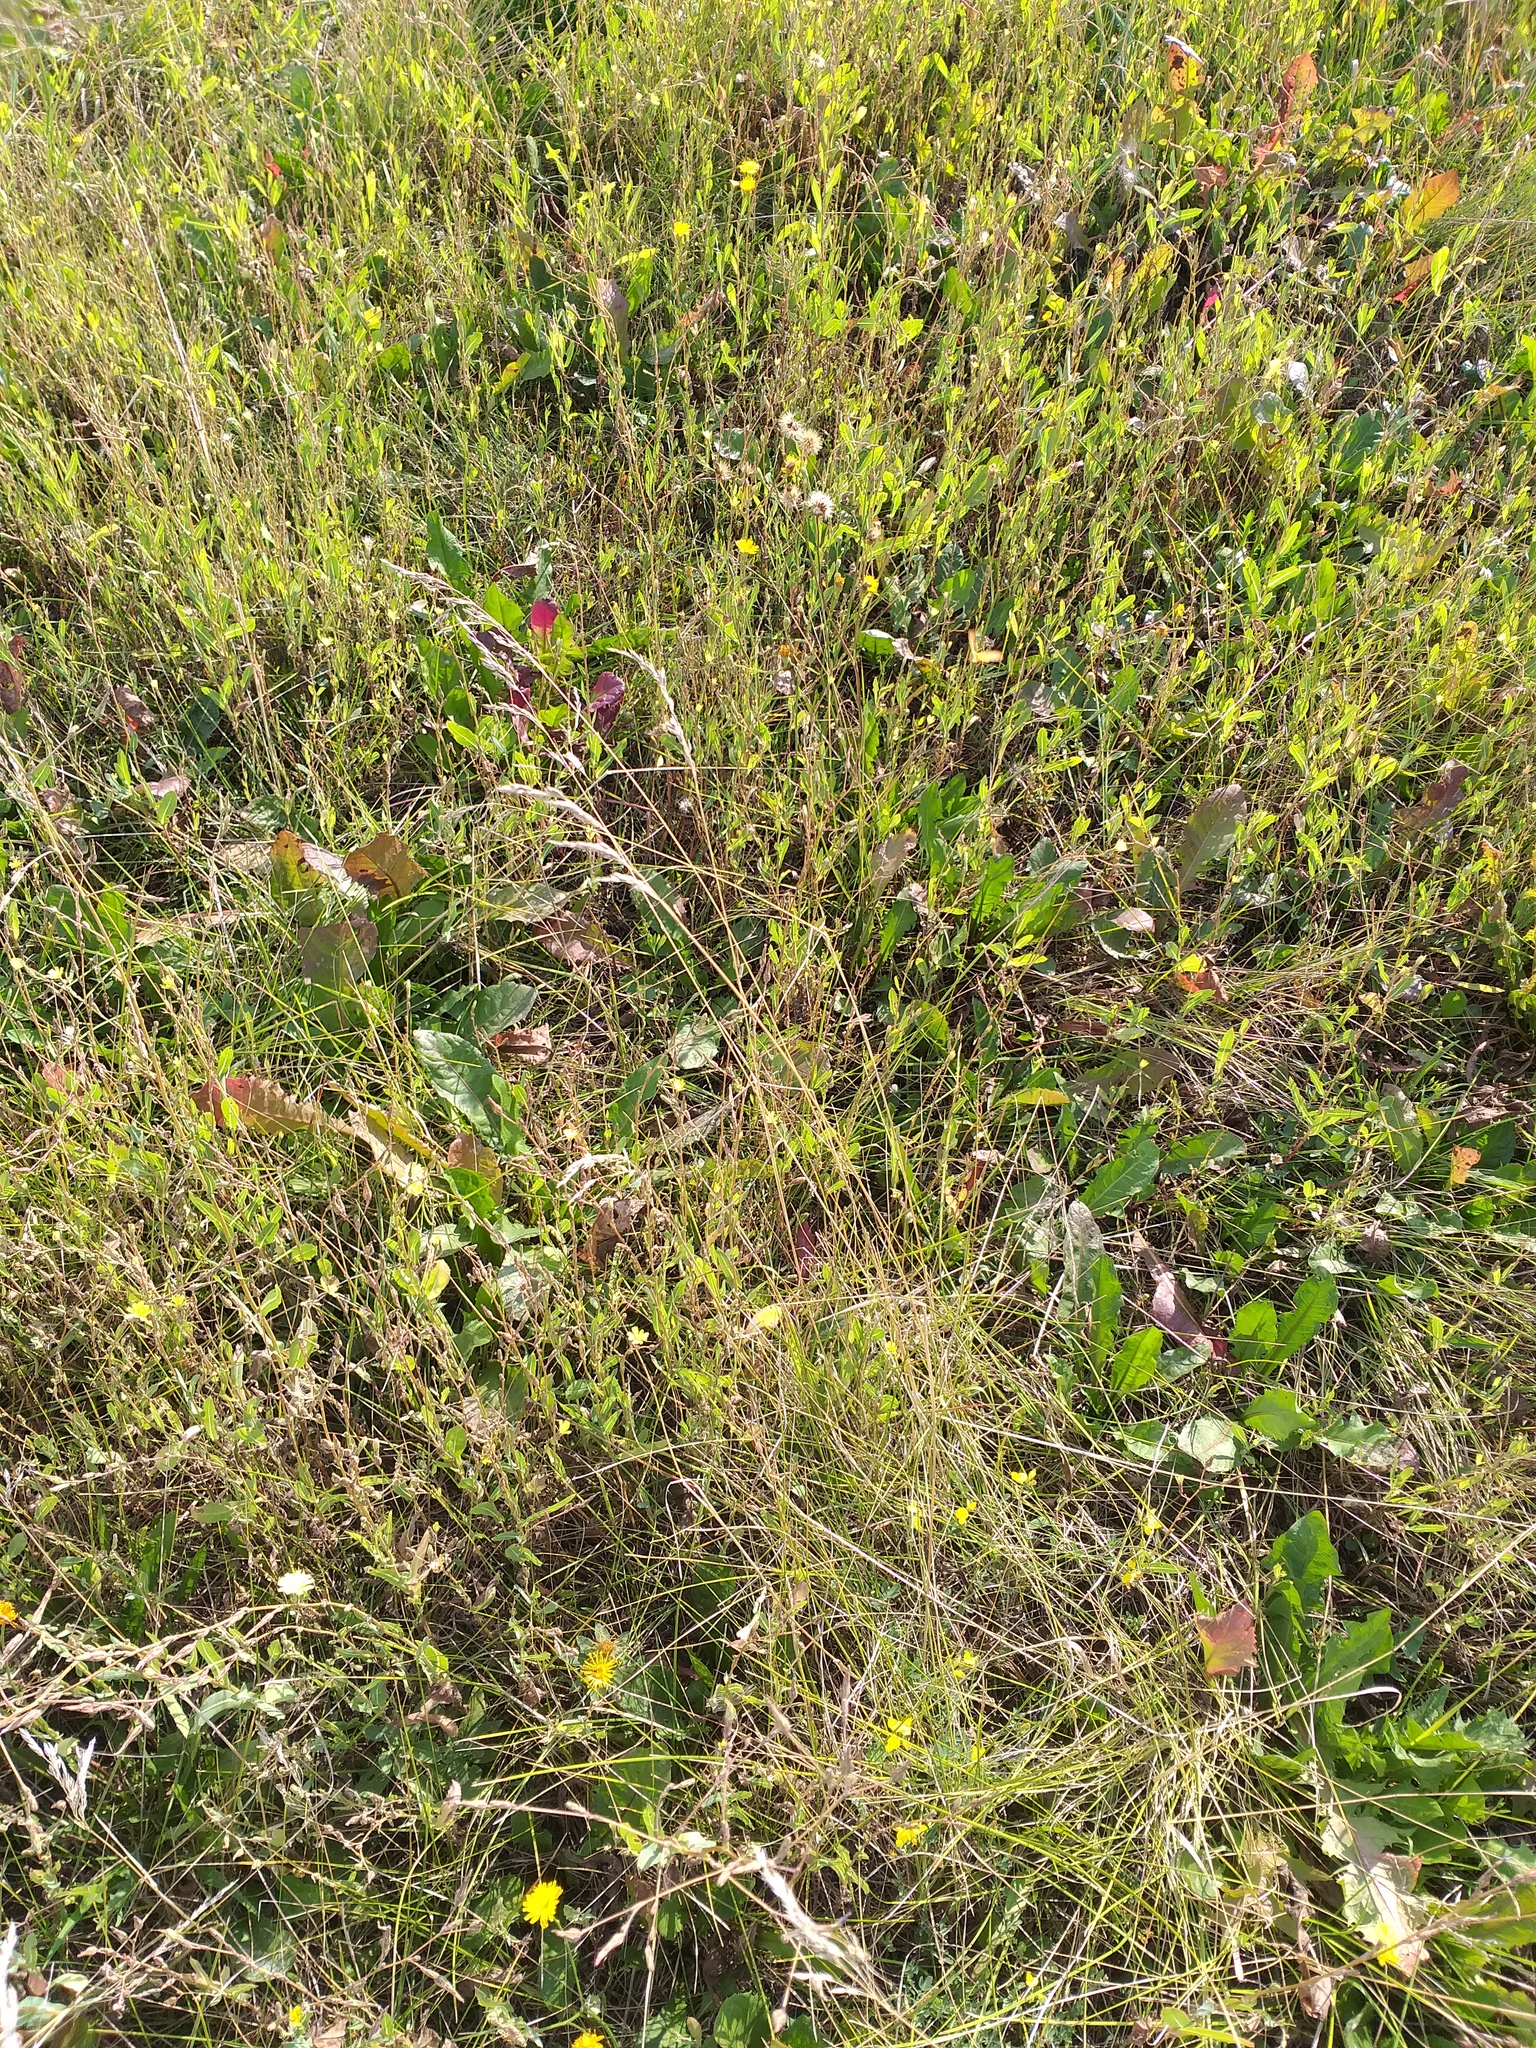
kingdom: Plantae
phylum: Tracheophyta
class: Liliopsida
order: Poales
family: Poaceae
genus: Poa
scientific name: Poa angustifolia
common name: Narrow-leaved meadow-grass
